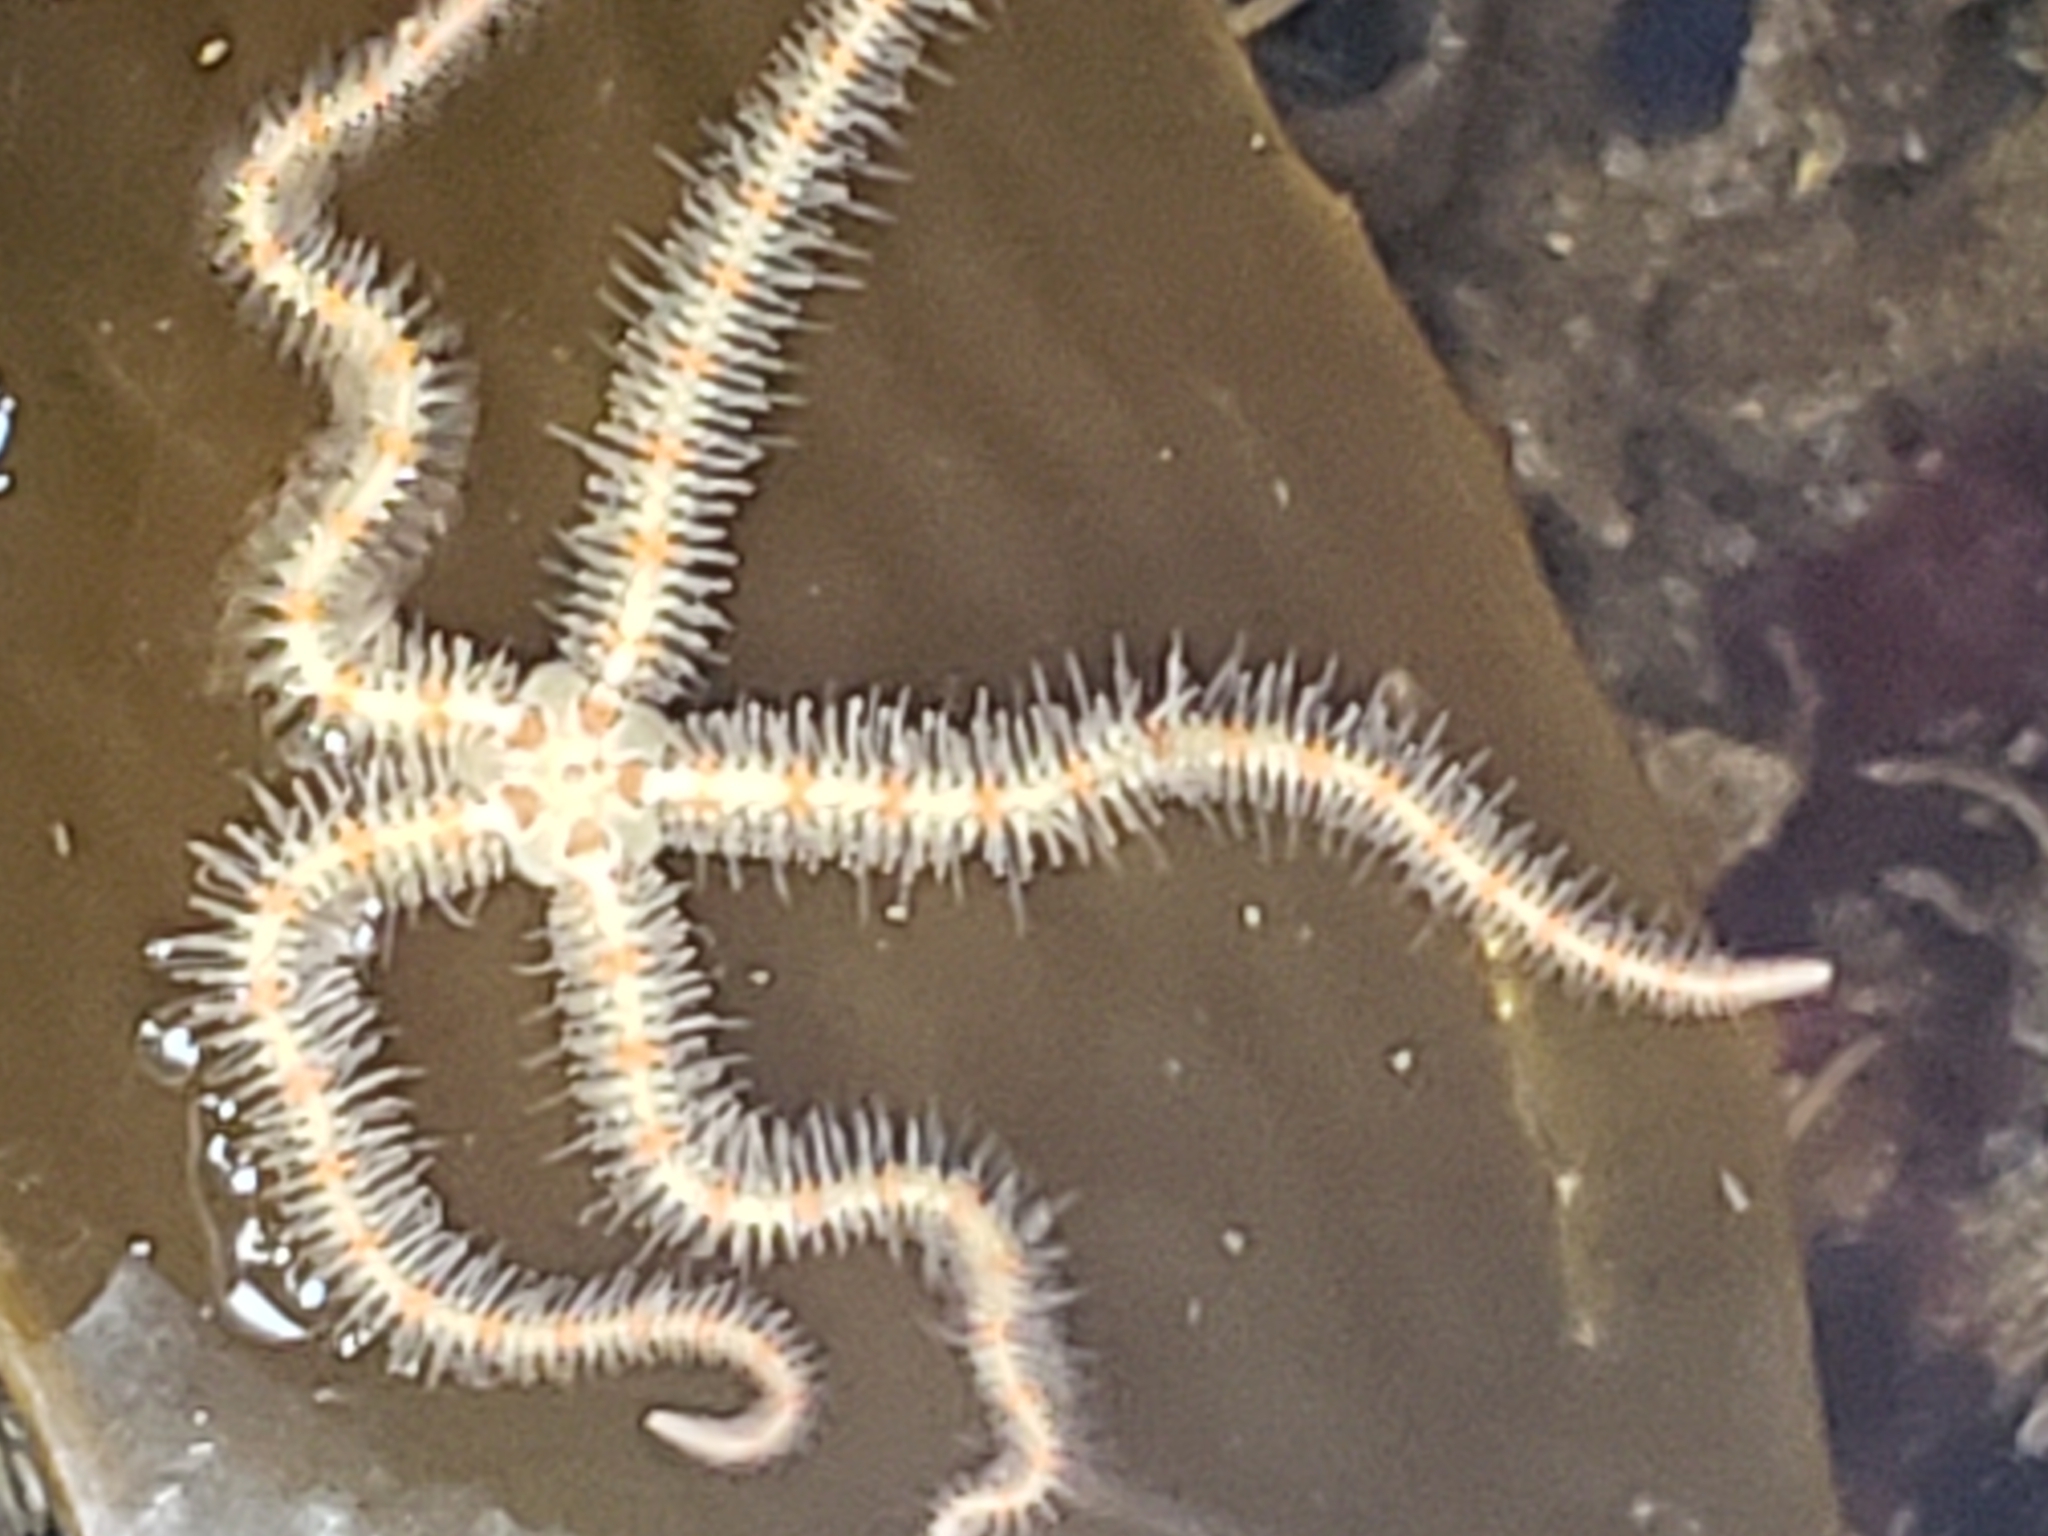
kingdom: Animalia
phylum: Echinodermata
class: Ophiuroidea
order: Amphilepidida
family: Ophiotrichidae
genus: Ophiothrix
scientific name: Ophiothrix spiculata
